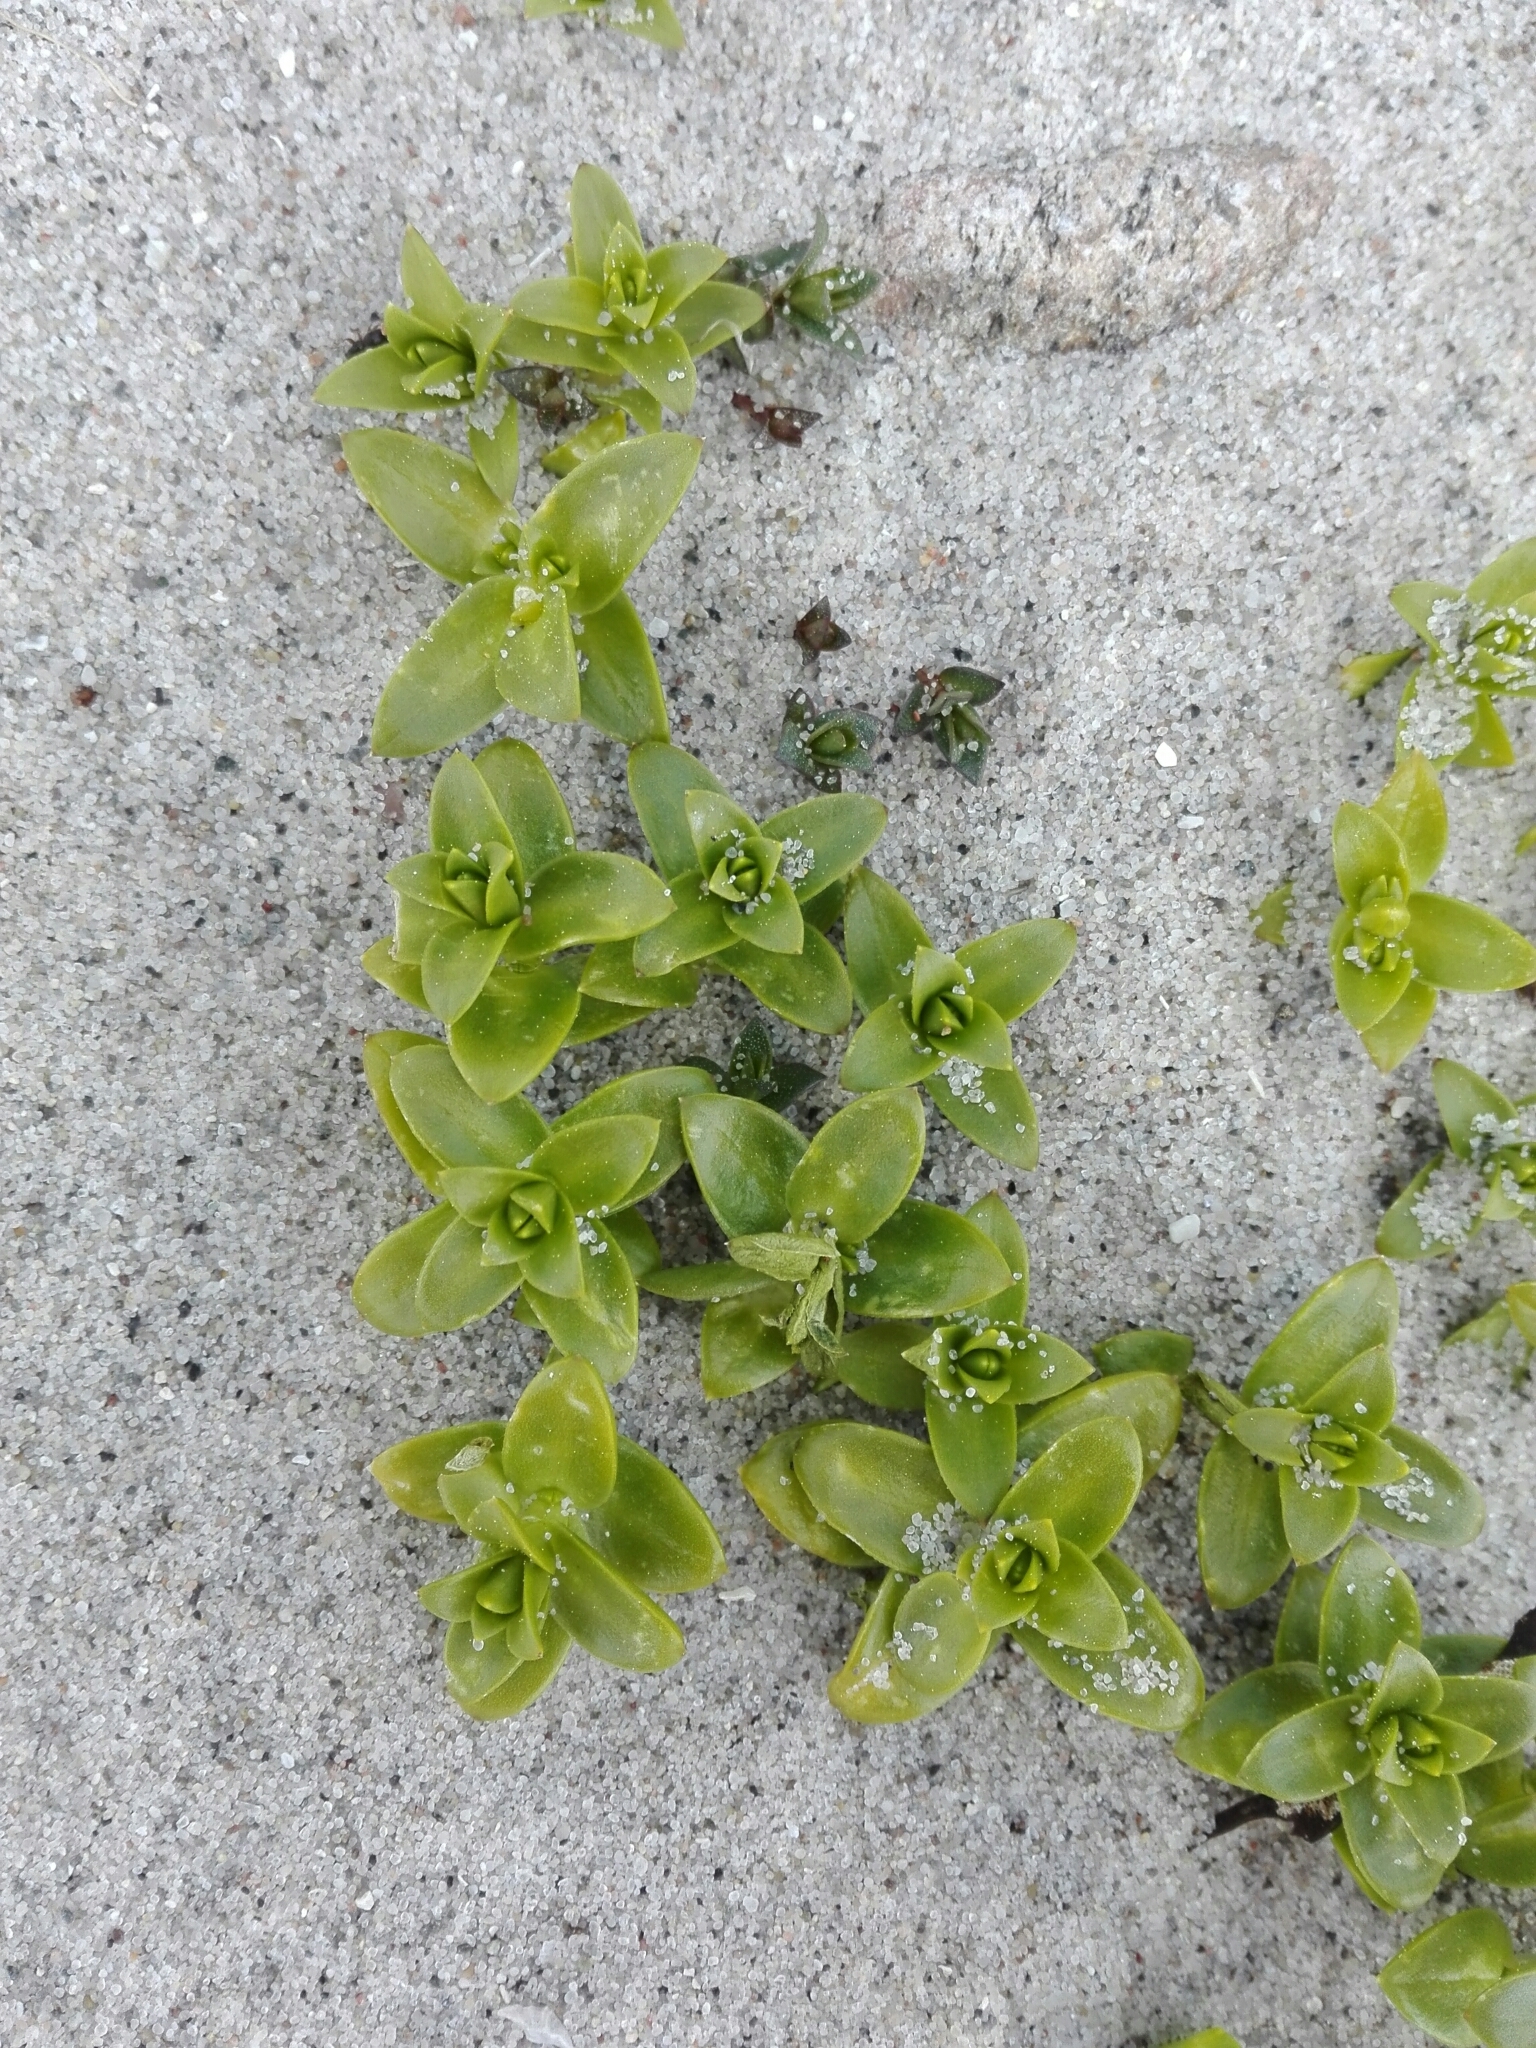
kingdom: Plantae
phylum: Tracheophyta
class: Magnoliopsida
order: Caryophyllales
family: Caryophyllaceae
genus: Honckenya
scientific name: Honckenya peploides
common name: Sea sandwort
